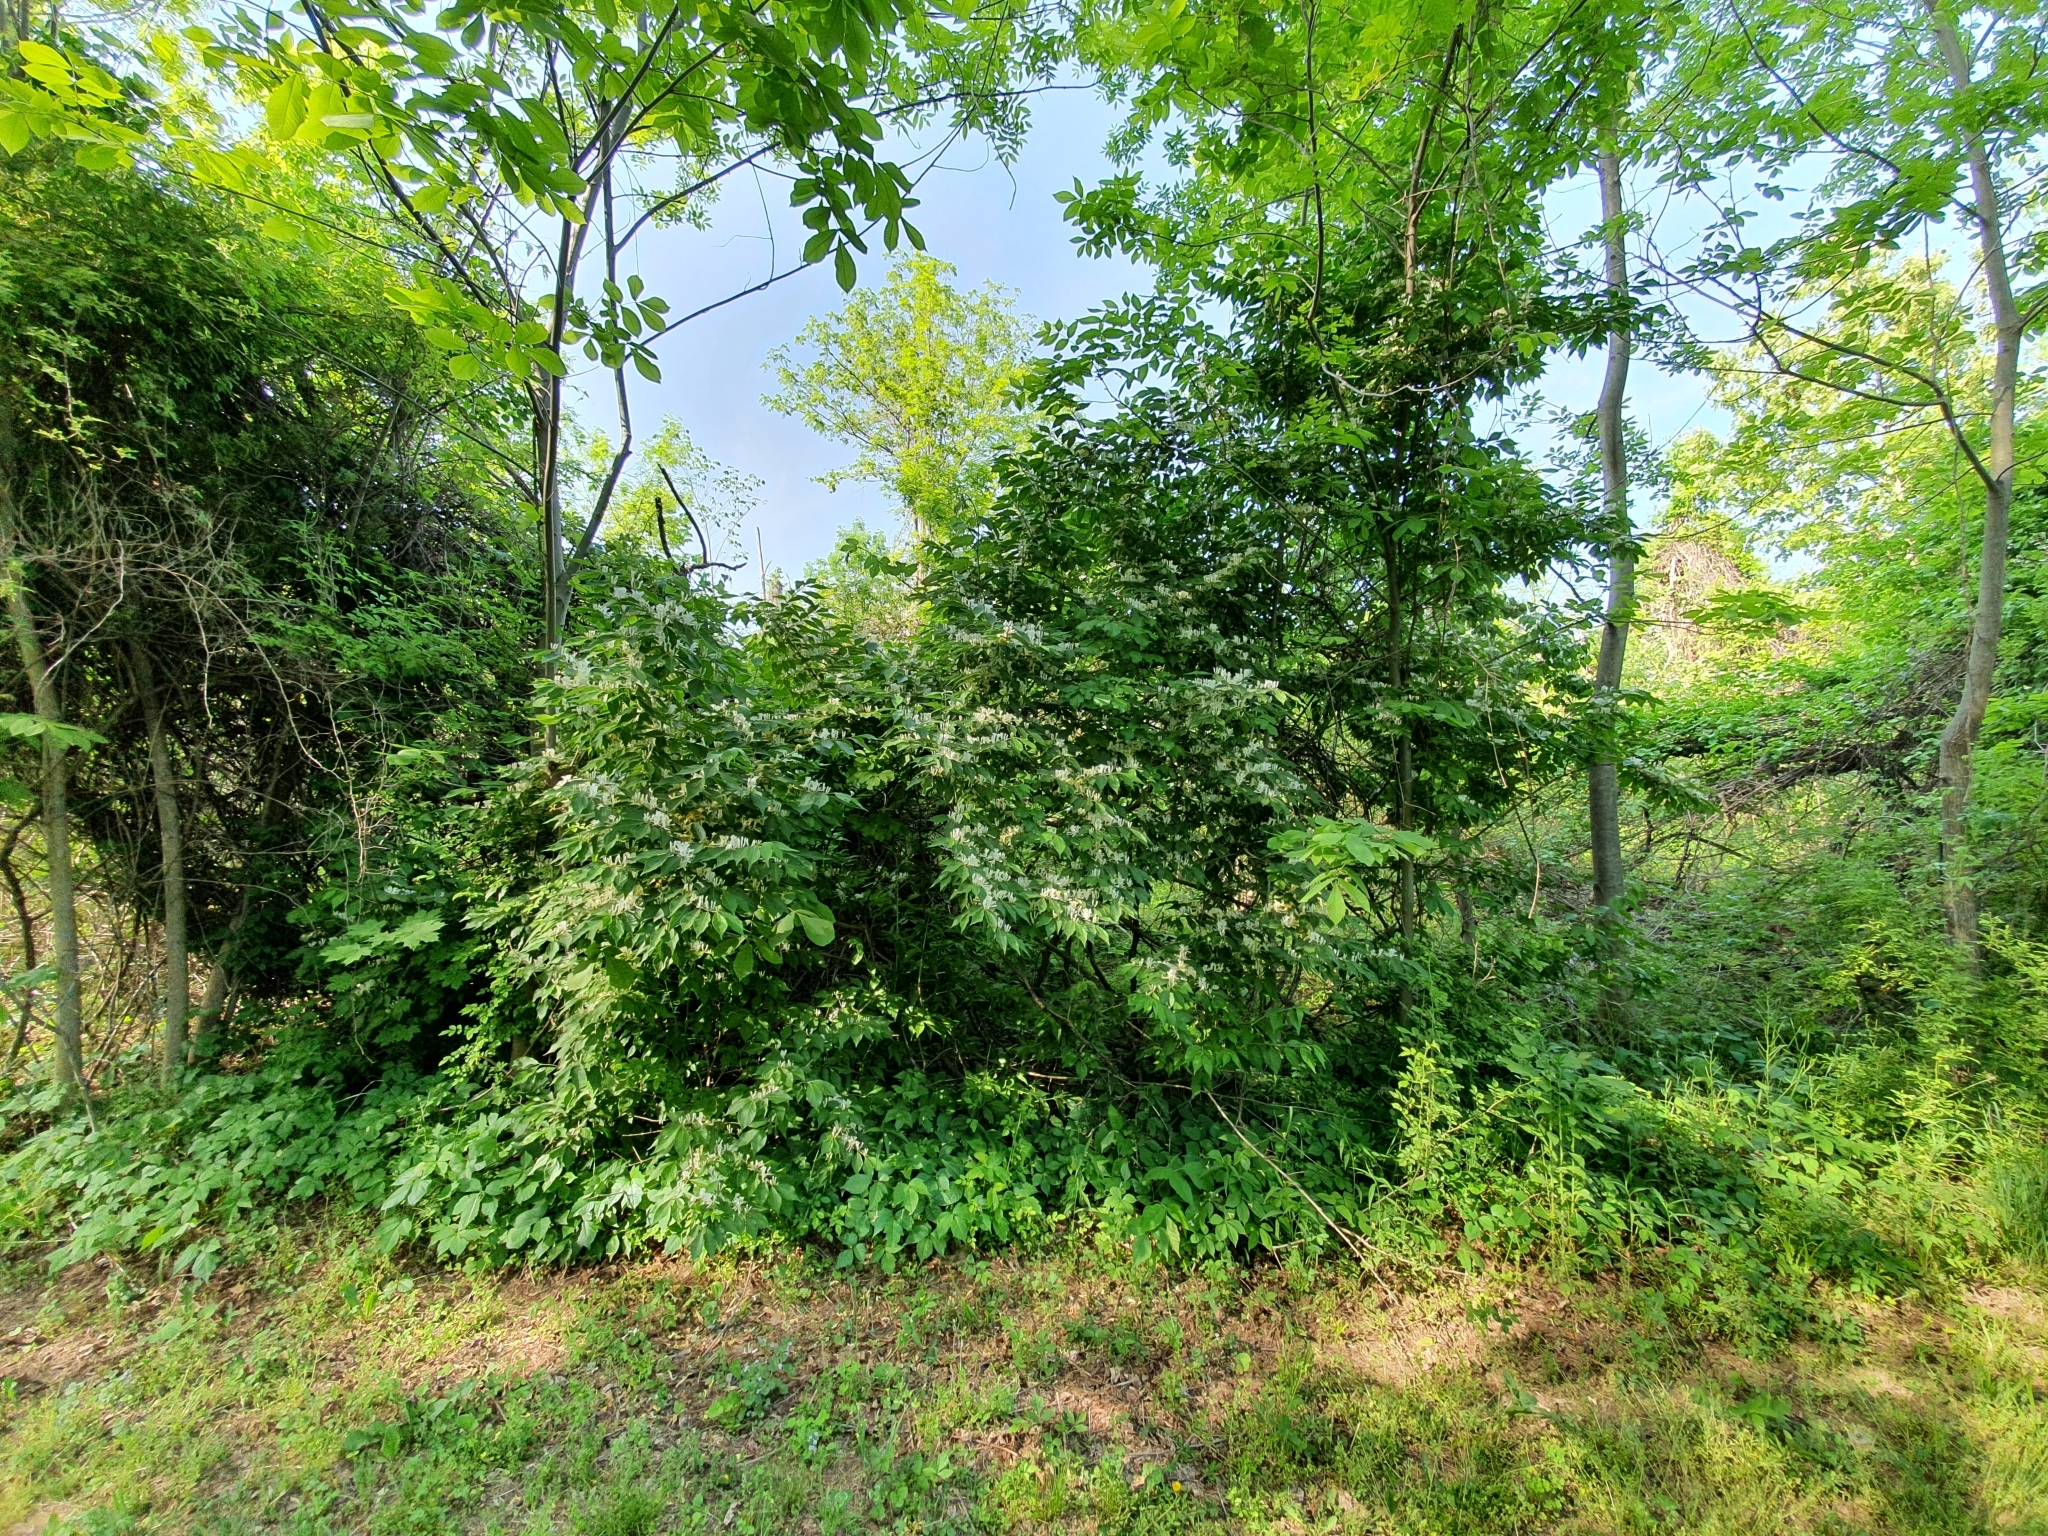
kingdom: Plantae
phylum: Tracheophyta
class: Magnoliopsida
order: Dipsacales
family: Caprifoliaceae
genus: Lonicera
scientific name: Lonicera maackii
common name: Amur honeysuckle
